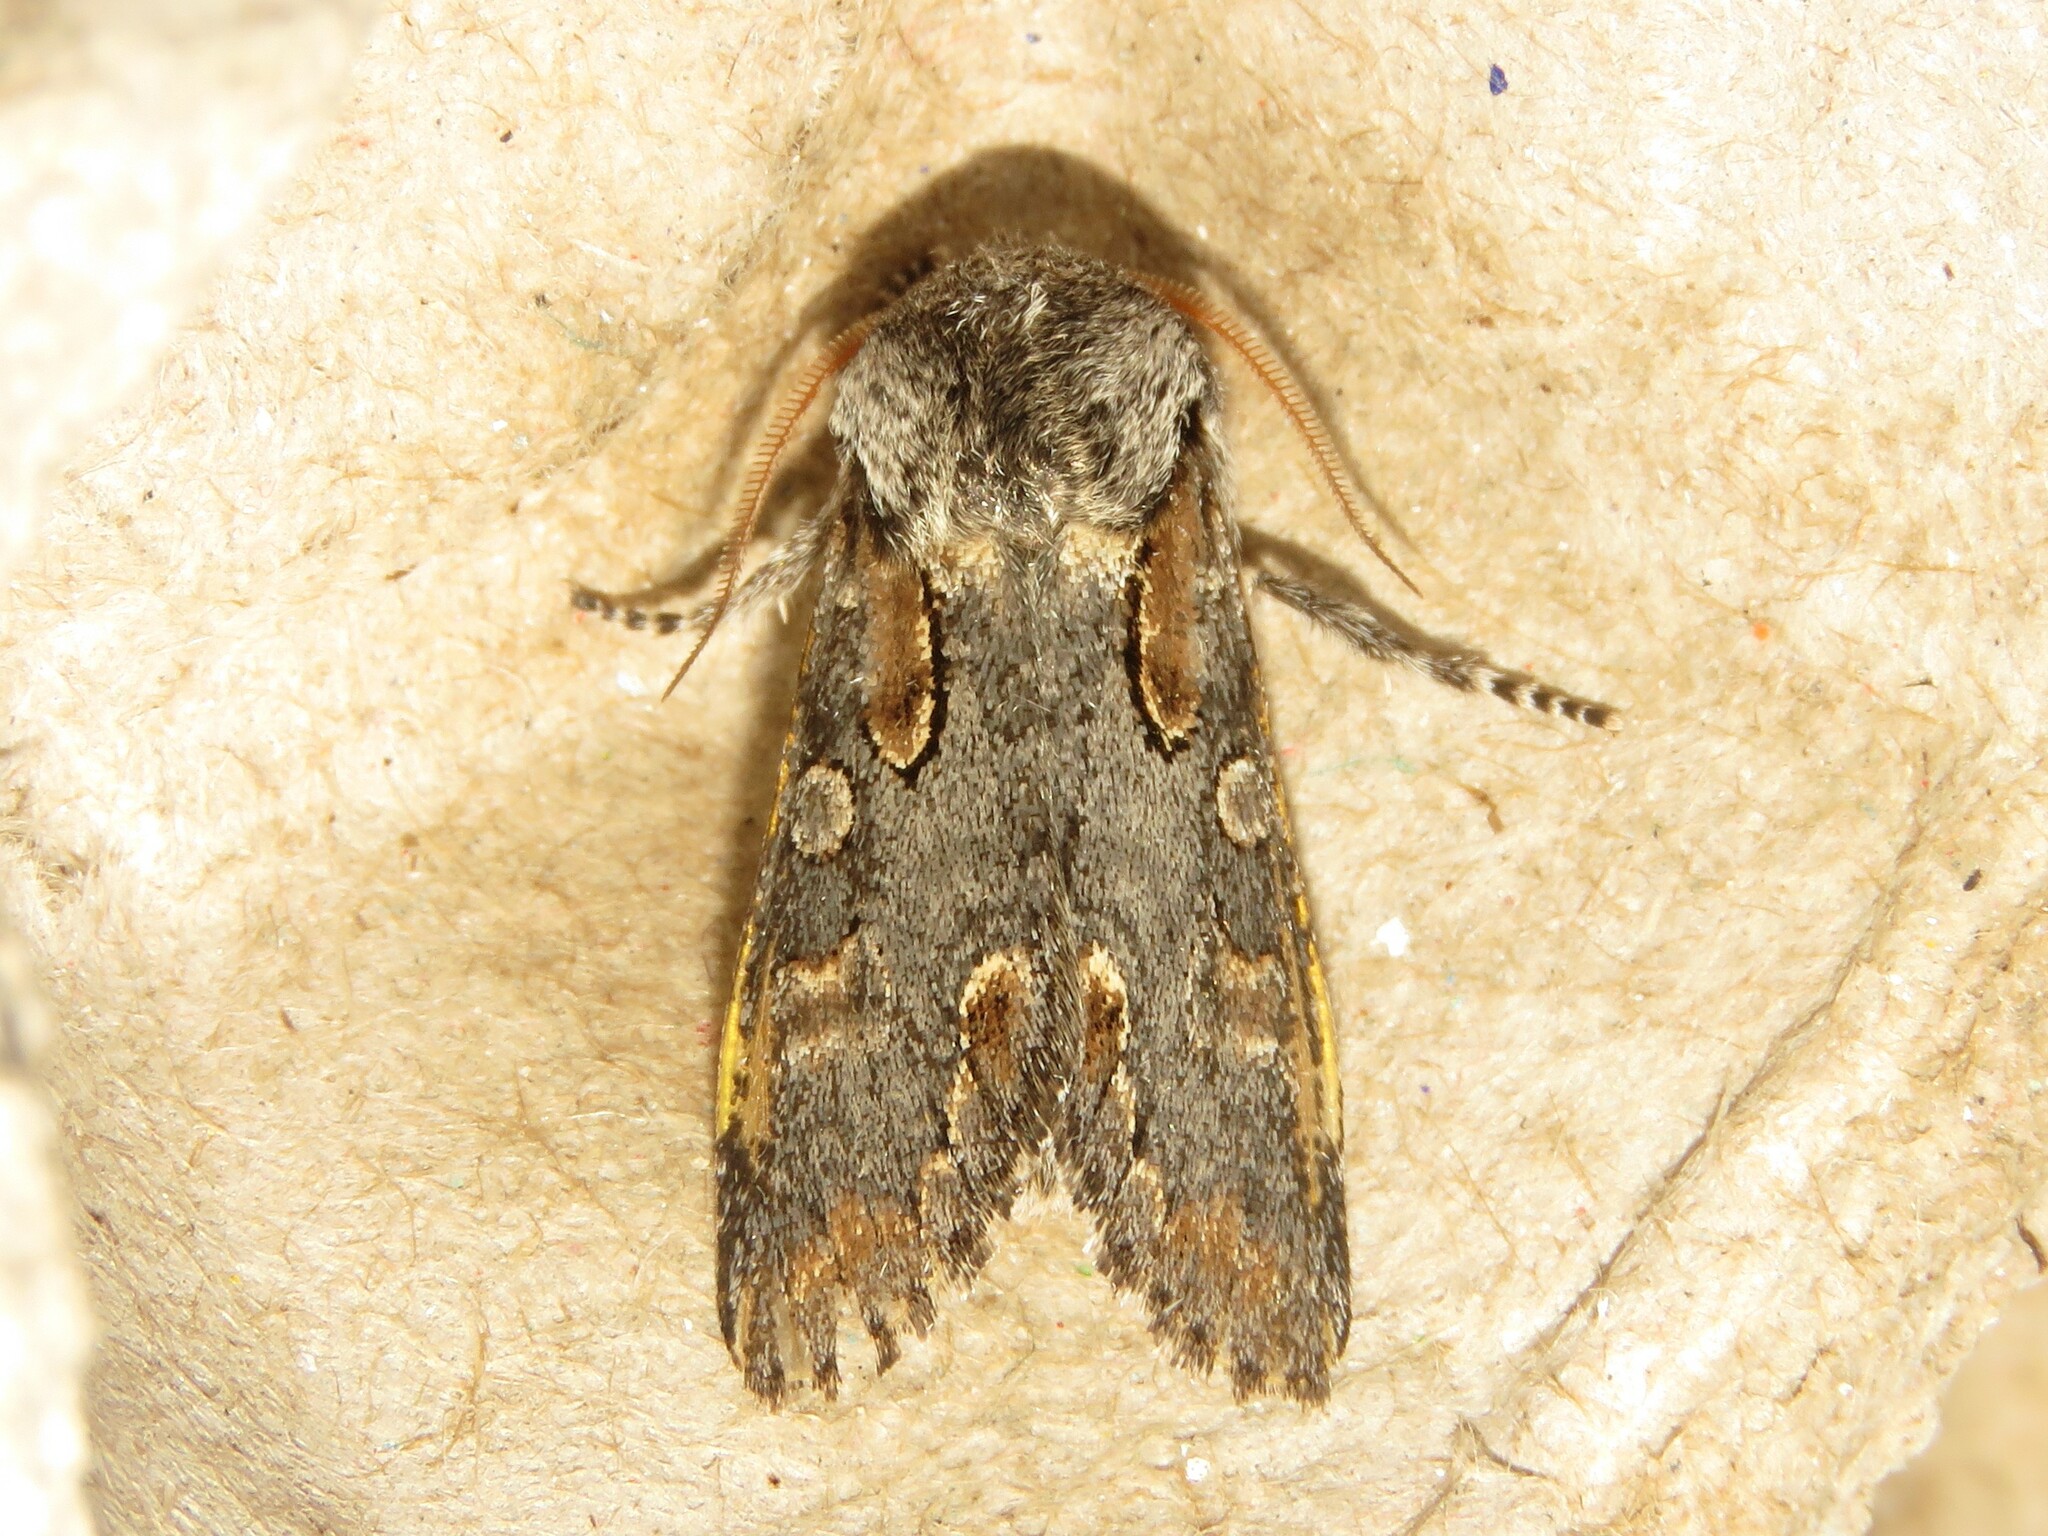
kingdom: Animalia
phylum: Arthropoda
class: Insecta
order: Lepidoptera
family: Noctuidae
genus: Psaphida
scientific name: Psaphida electilis
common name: Chosen sallow
